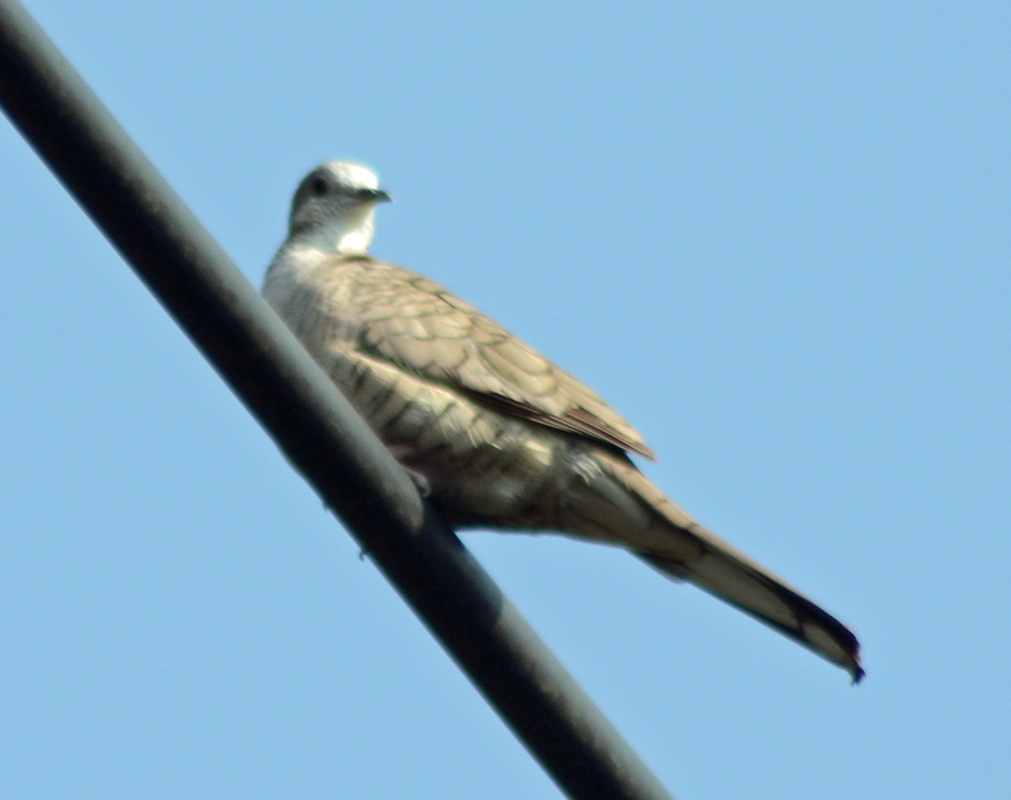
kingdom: Animalia
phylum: Chordata
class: Aves
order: Columbiformes
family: Columbidae
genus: Columbina
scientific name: Columbina inca
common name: Inca dove
